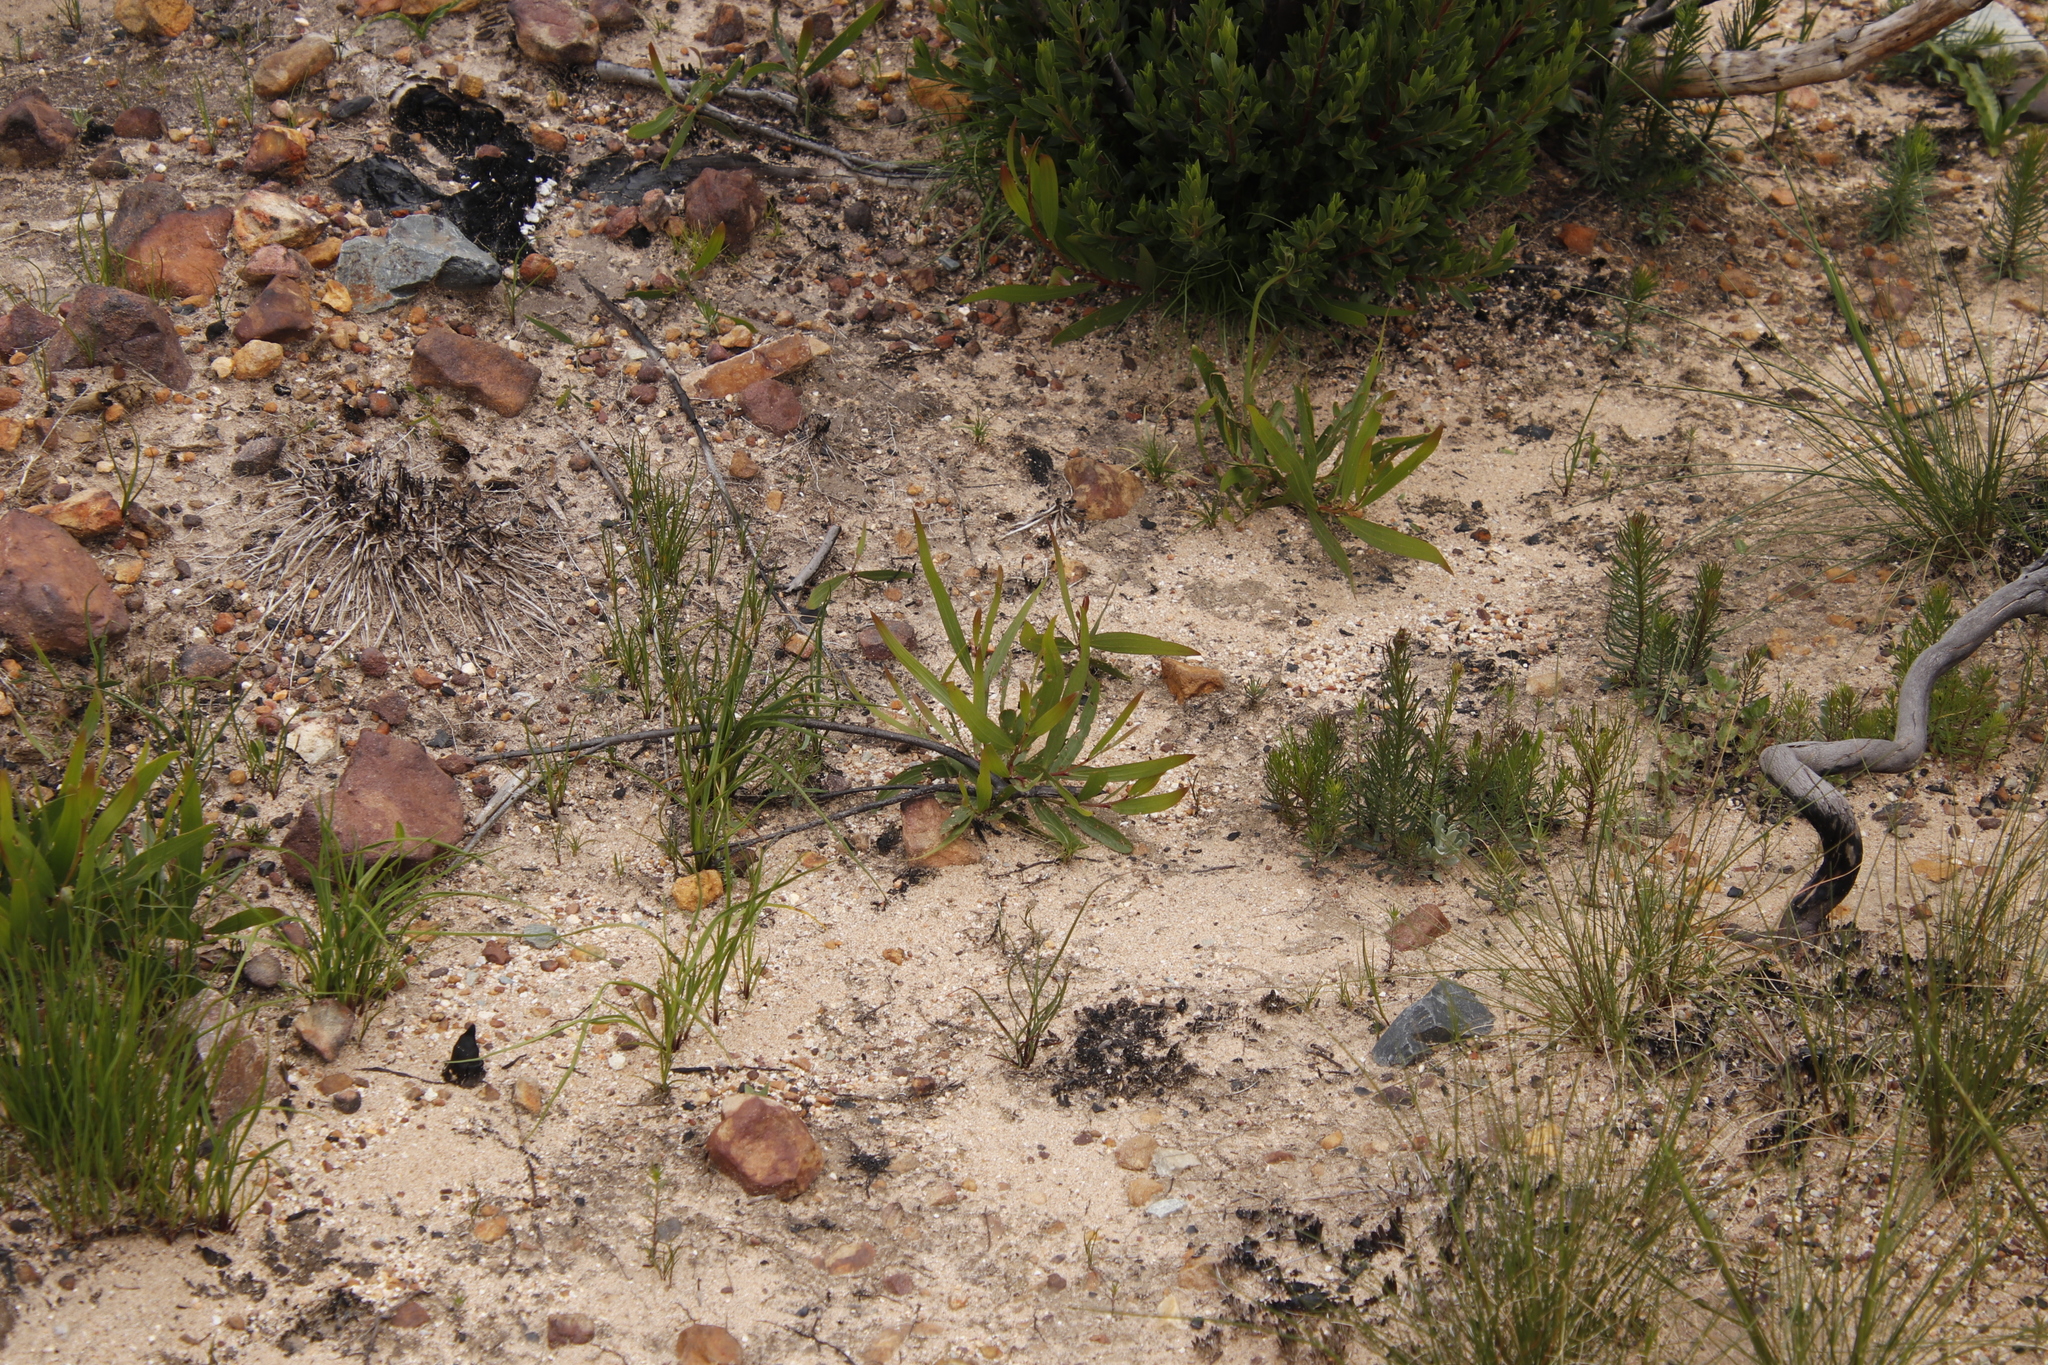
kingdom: Plantae
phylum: Tracheophyta
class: Magnoliopsida
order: Fabales
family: Fabaceae
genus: Acacia
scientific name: Acacia longifolia
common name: Sydney golden wattle
